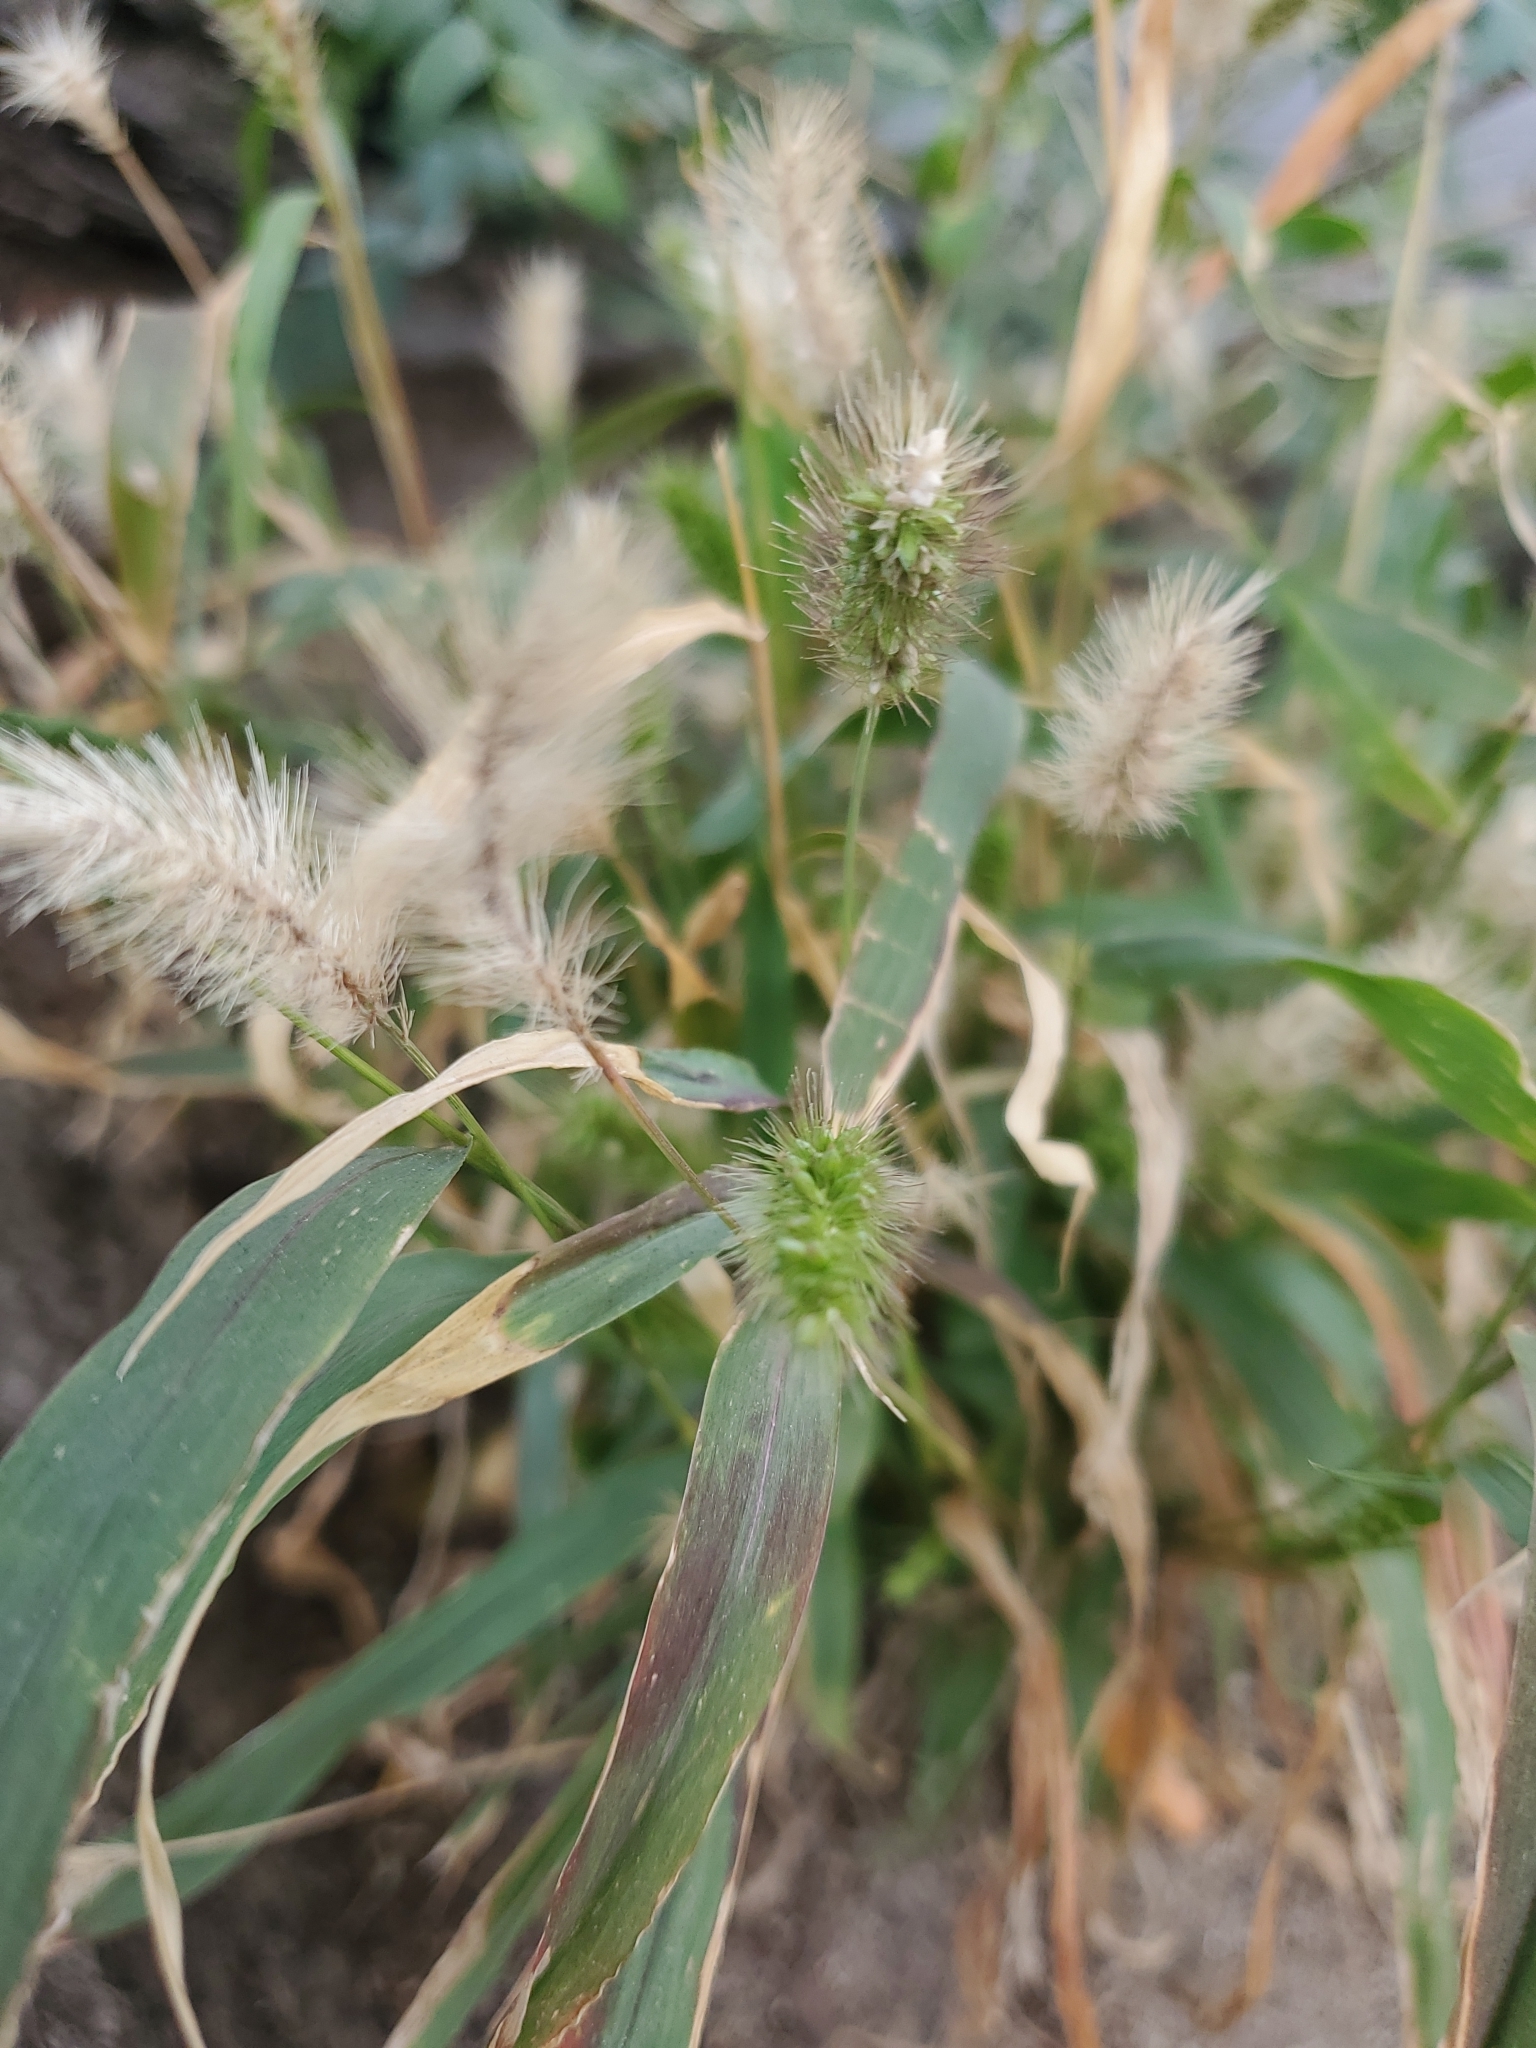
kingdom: Plantae
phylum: Tracheophyta
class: Liliopsida
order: Poales
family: Poaceae
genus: Setaria
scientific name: Setaria viridis
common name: Green bristlegrass
